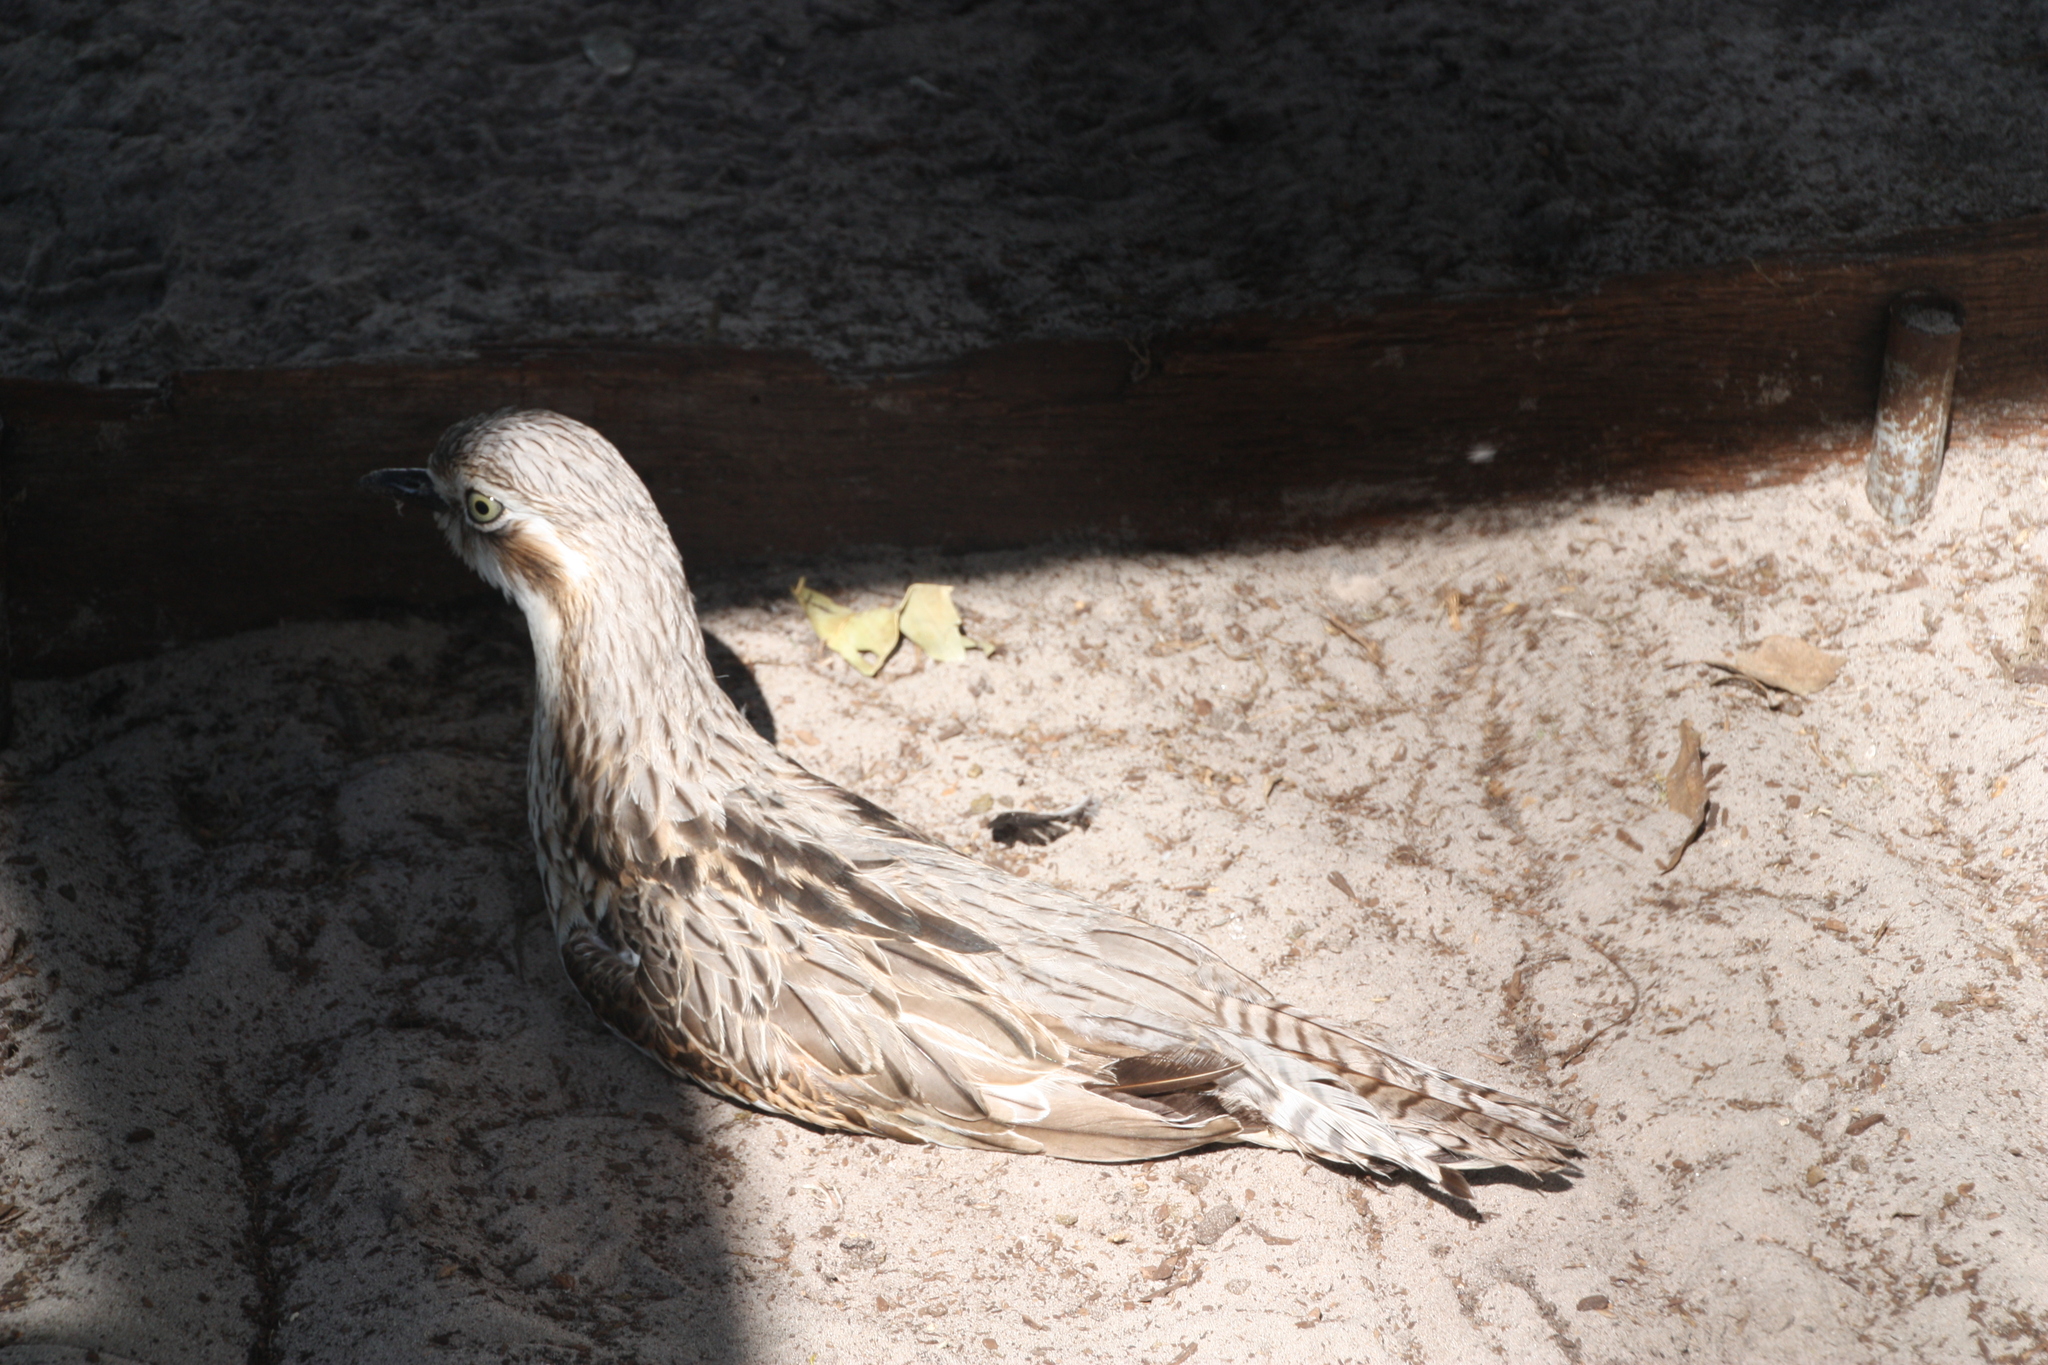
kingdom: Animalia
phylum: Chordata
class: Aves
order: Charadriiformes
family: Burhinidae
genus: Burhinus
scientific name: Burhinus grallarius
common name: Bush stone-curlew
